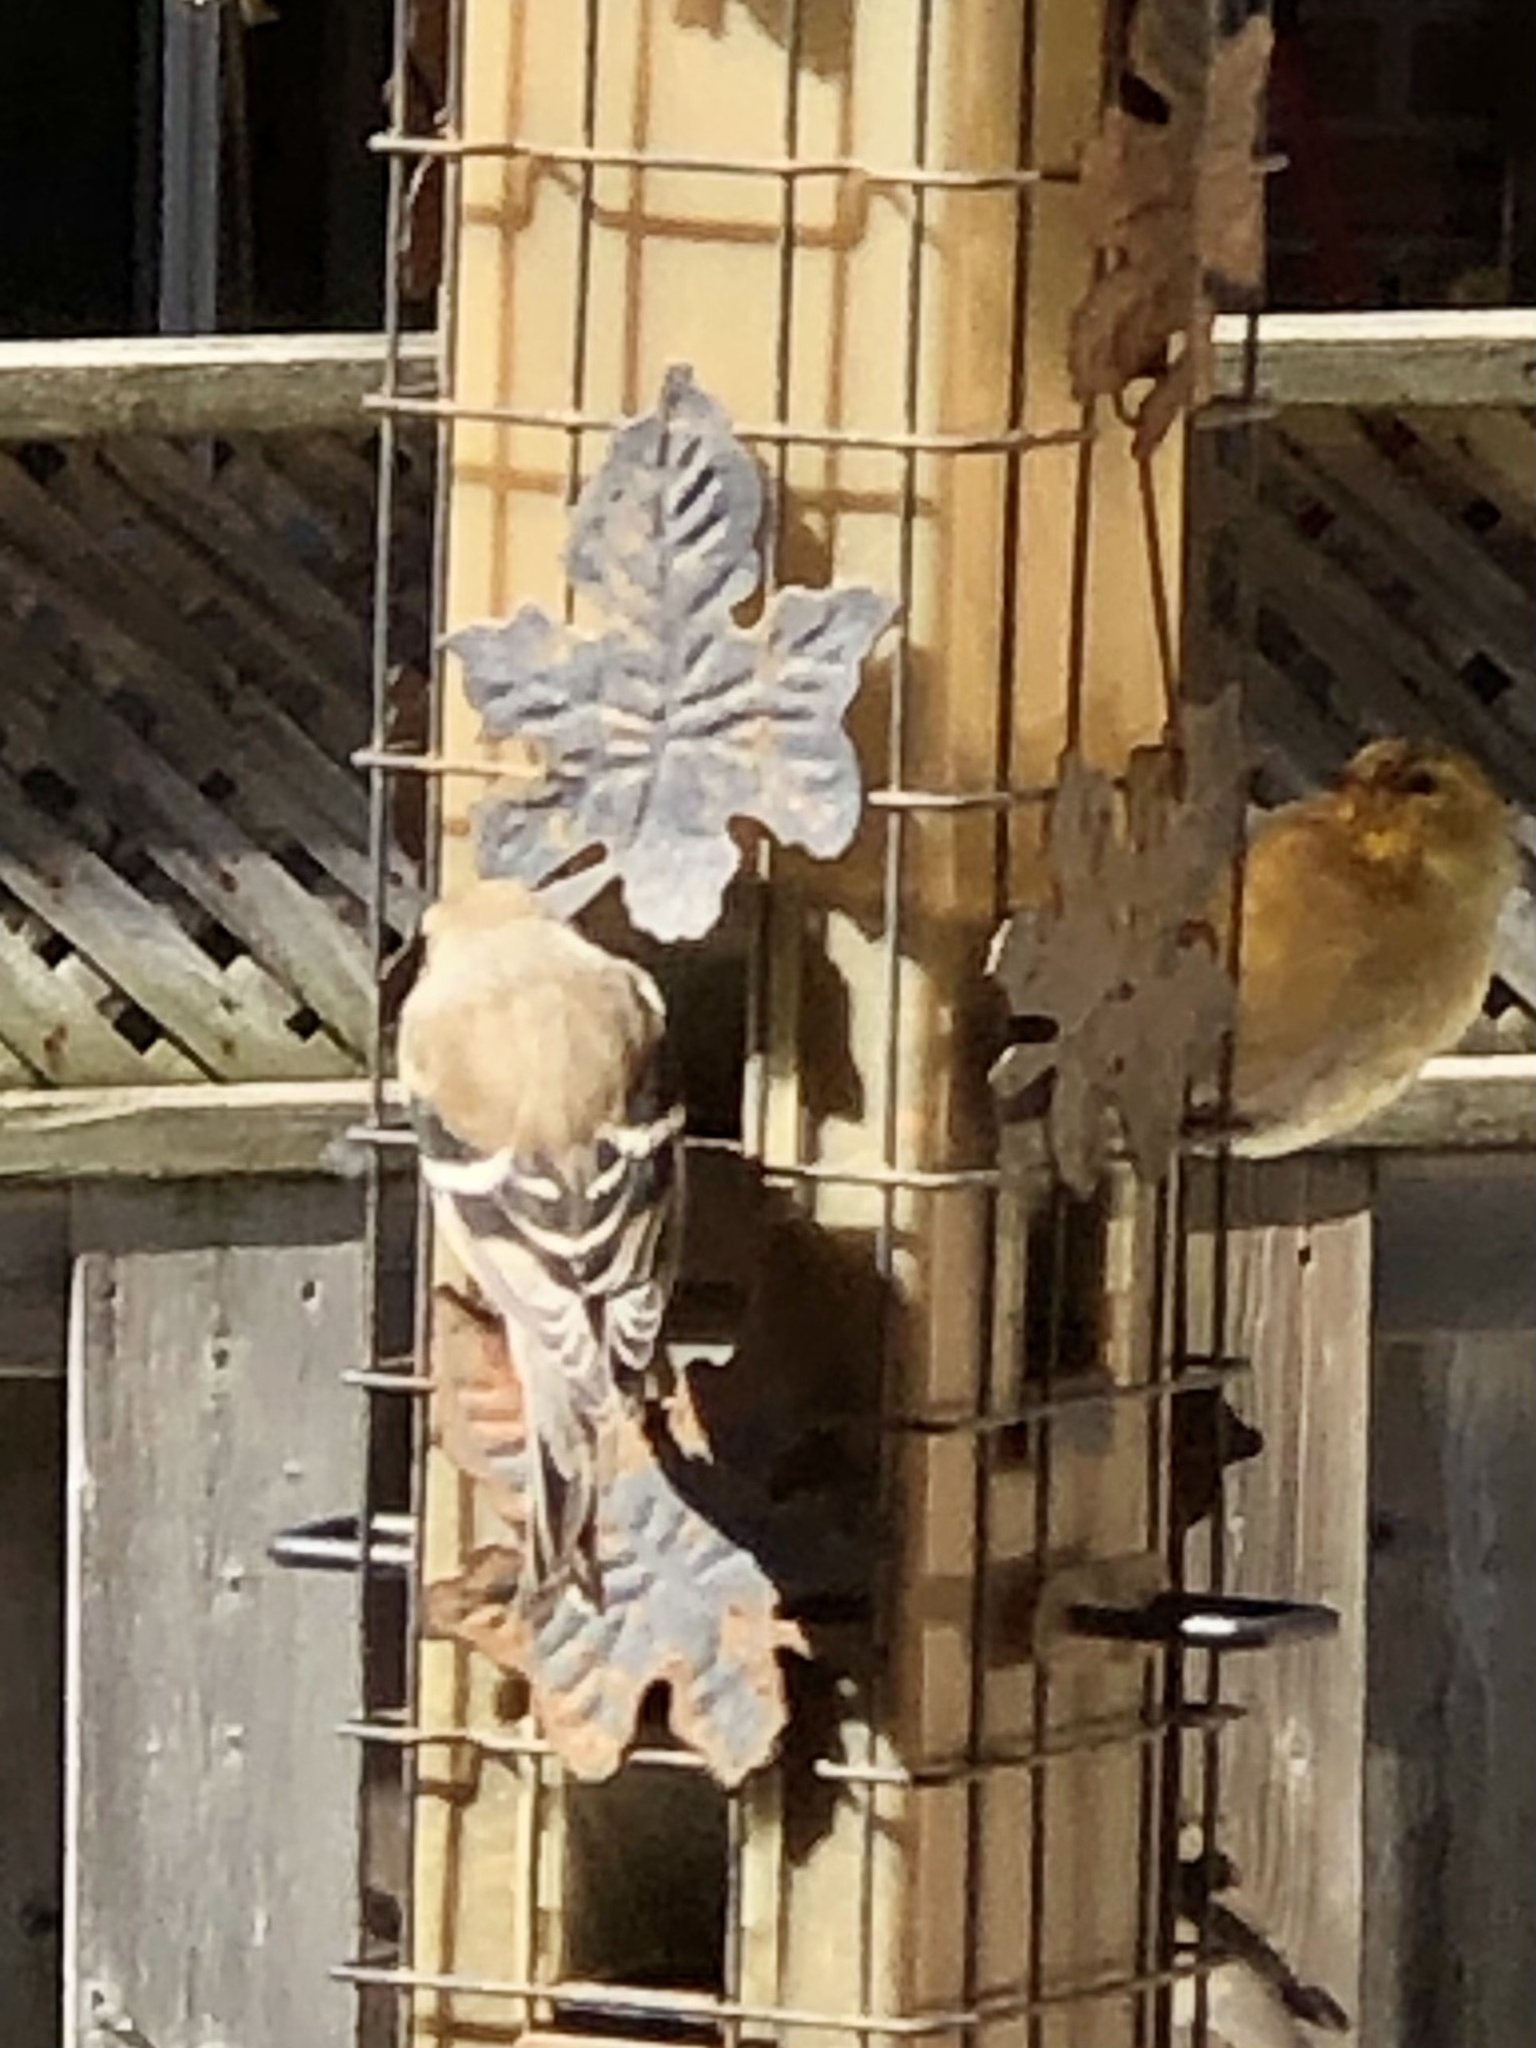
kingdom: Animalia
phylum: Chordata
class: Aves
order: Passeriformes
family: Fringillidae
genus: Spinus
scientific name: Spinus tristis
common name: American goldfinch
